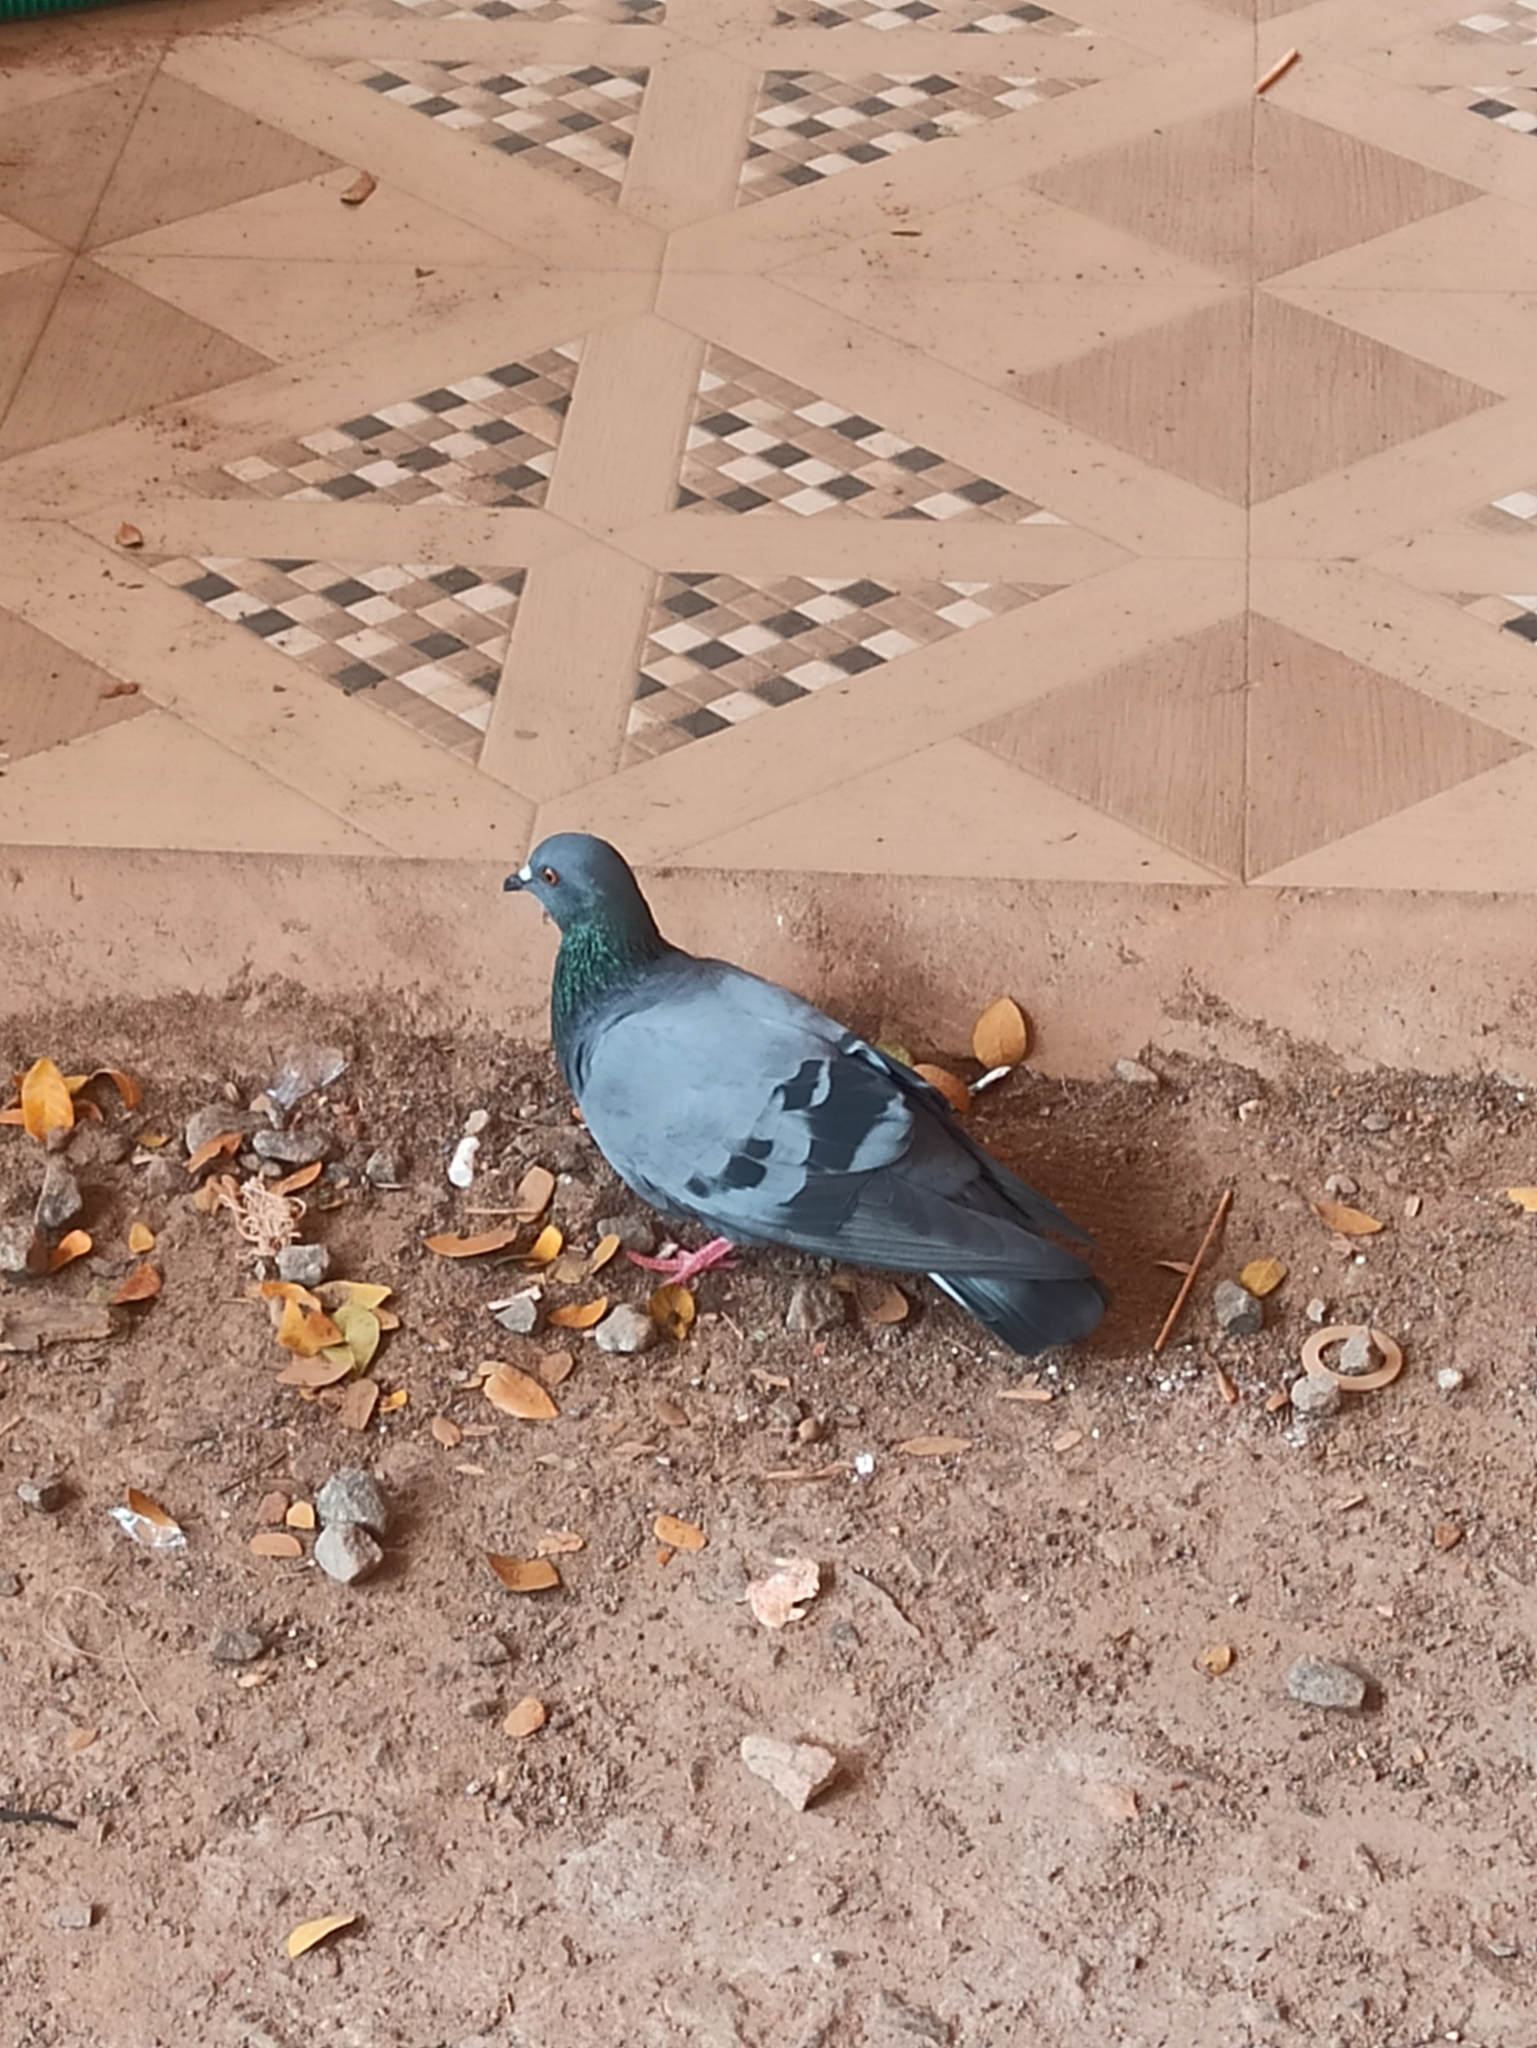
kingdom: Animalia
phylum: Chordata
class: Aves
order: Columbiformes
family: Columbidae
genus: Columba
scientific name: Columba livia
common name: Rock pigeon
